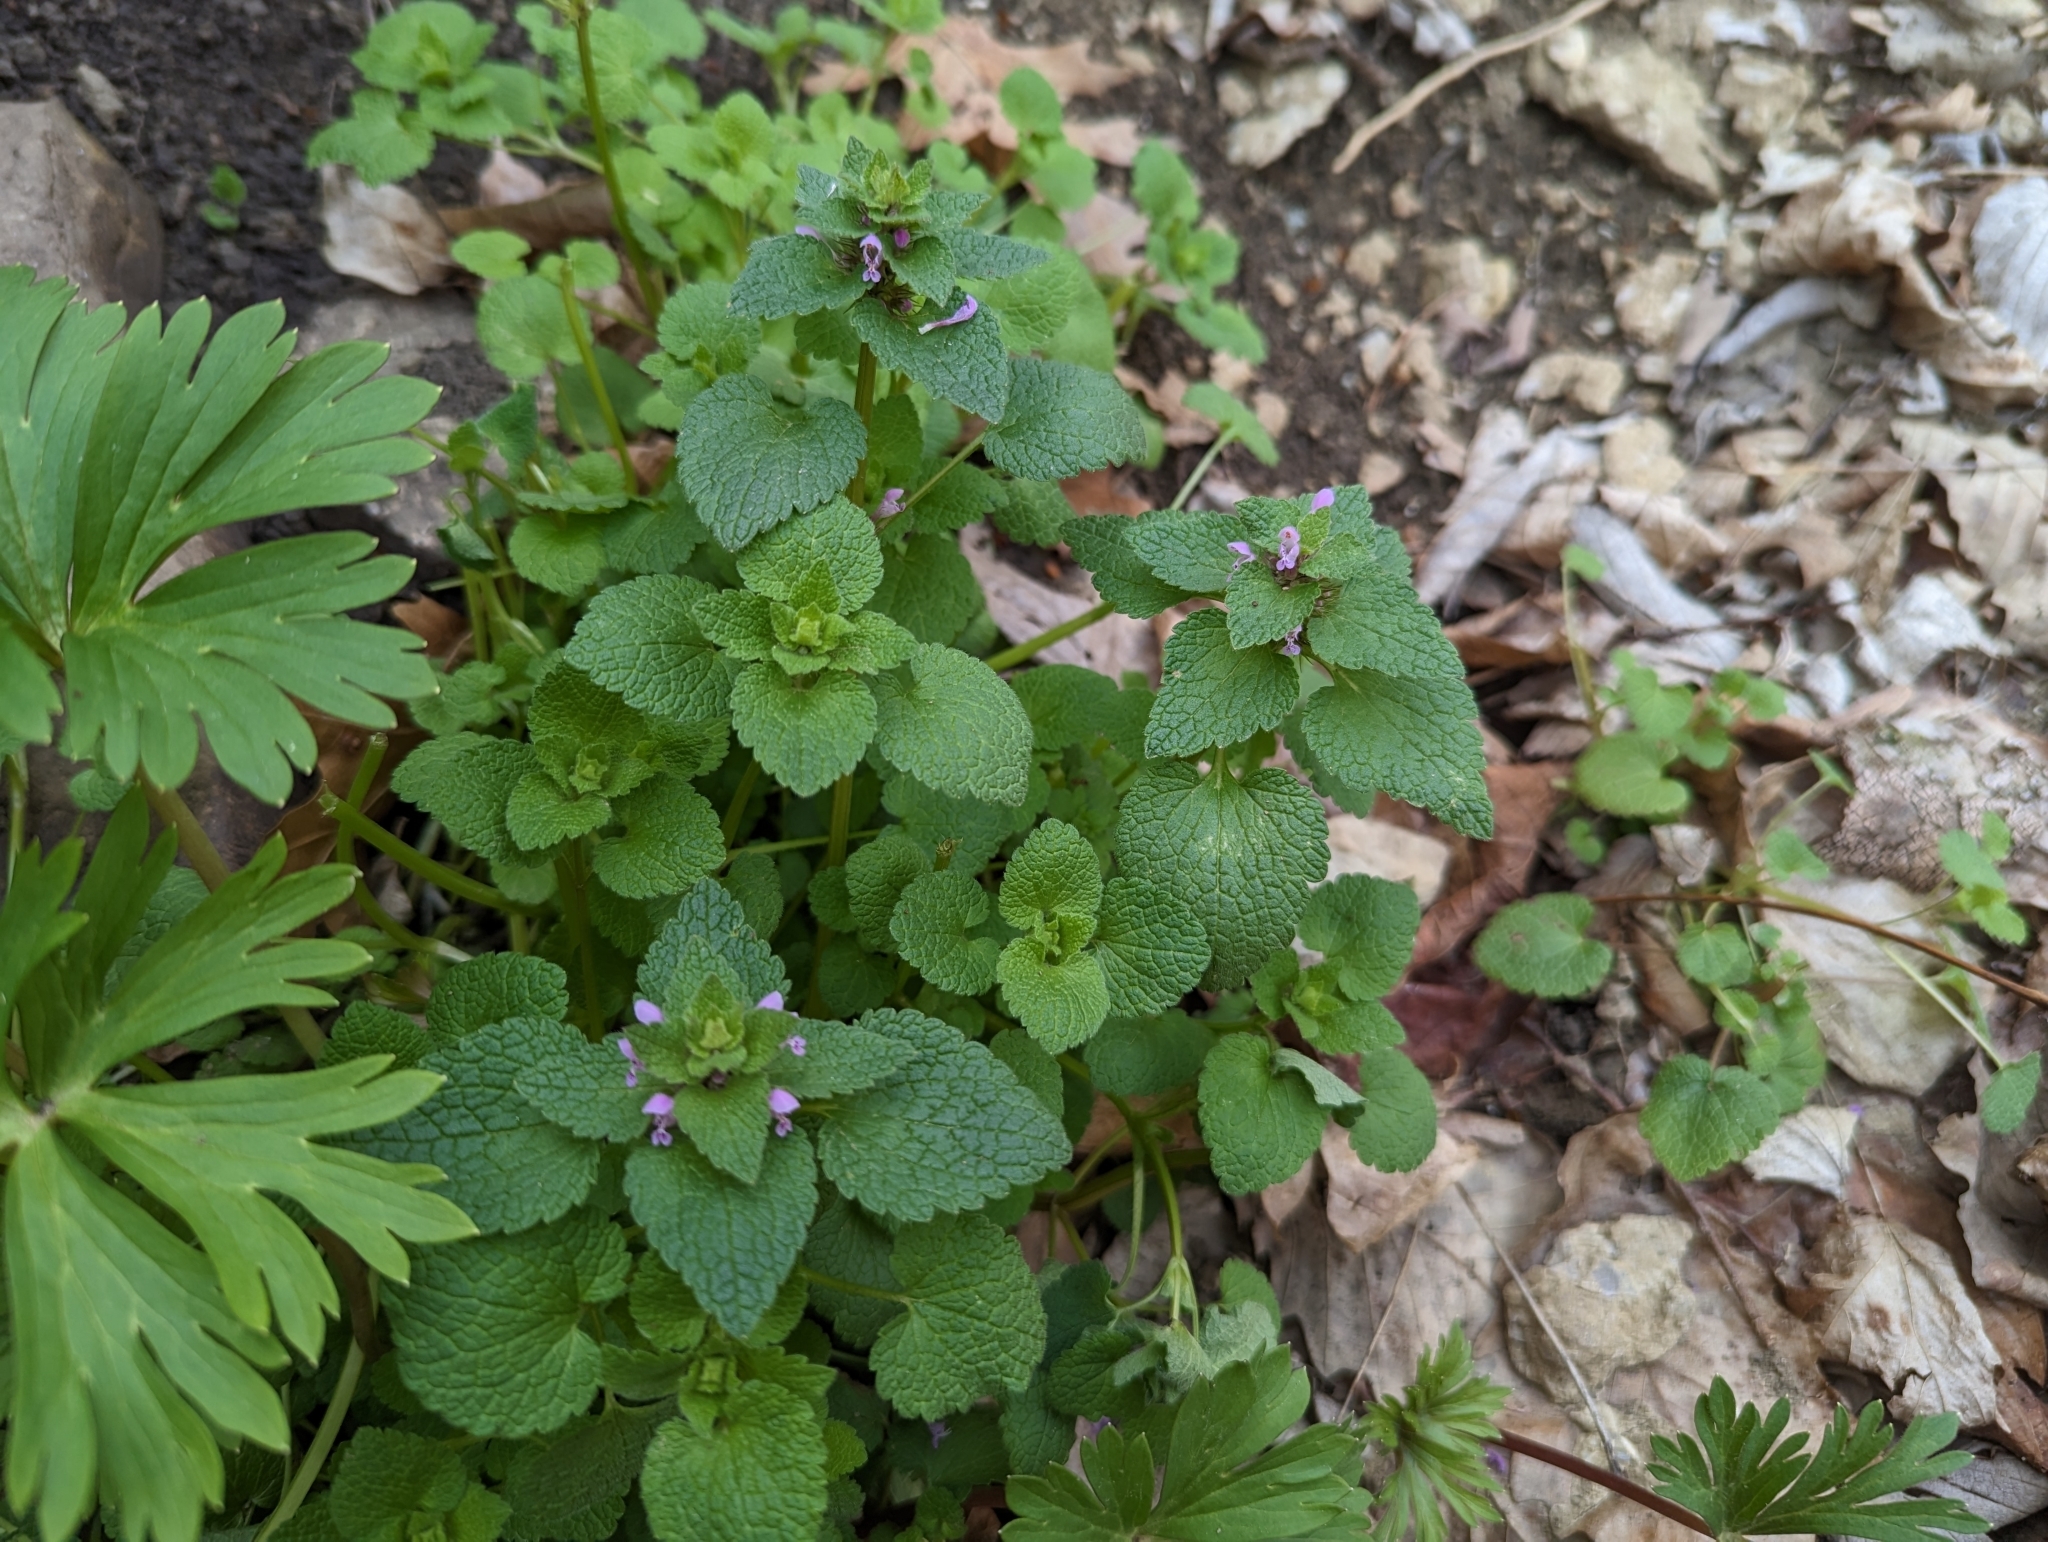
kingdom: Plantae
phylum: Tracheophyta
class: Magnoliopsida
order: Lamiales
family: Lamiaceae
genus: Lamium
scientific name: Lamium purpureum
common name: Red dead-nettle
